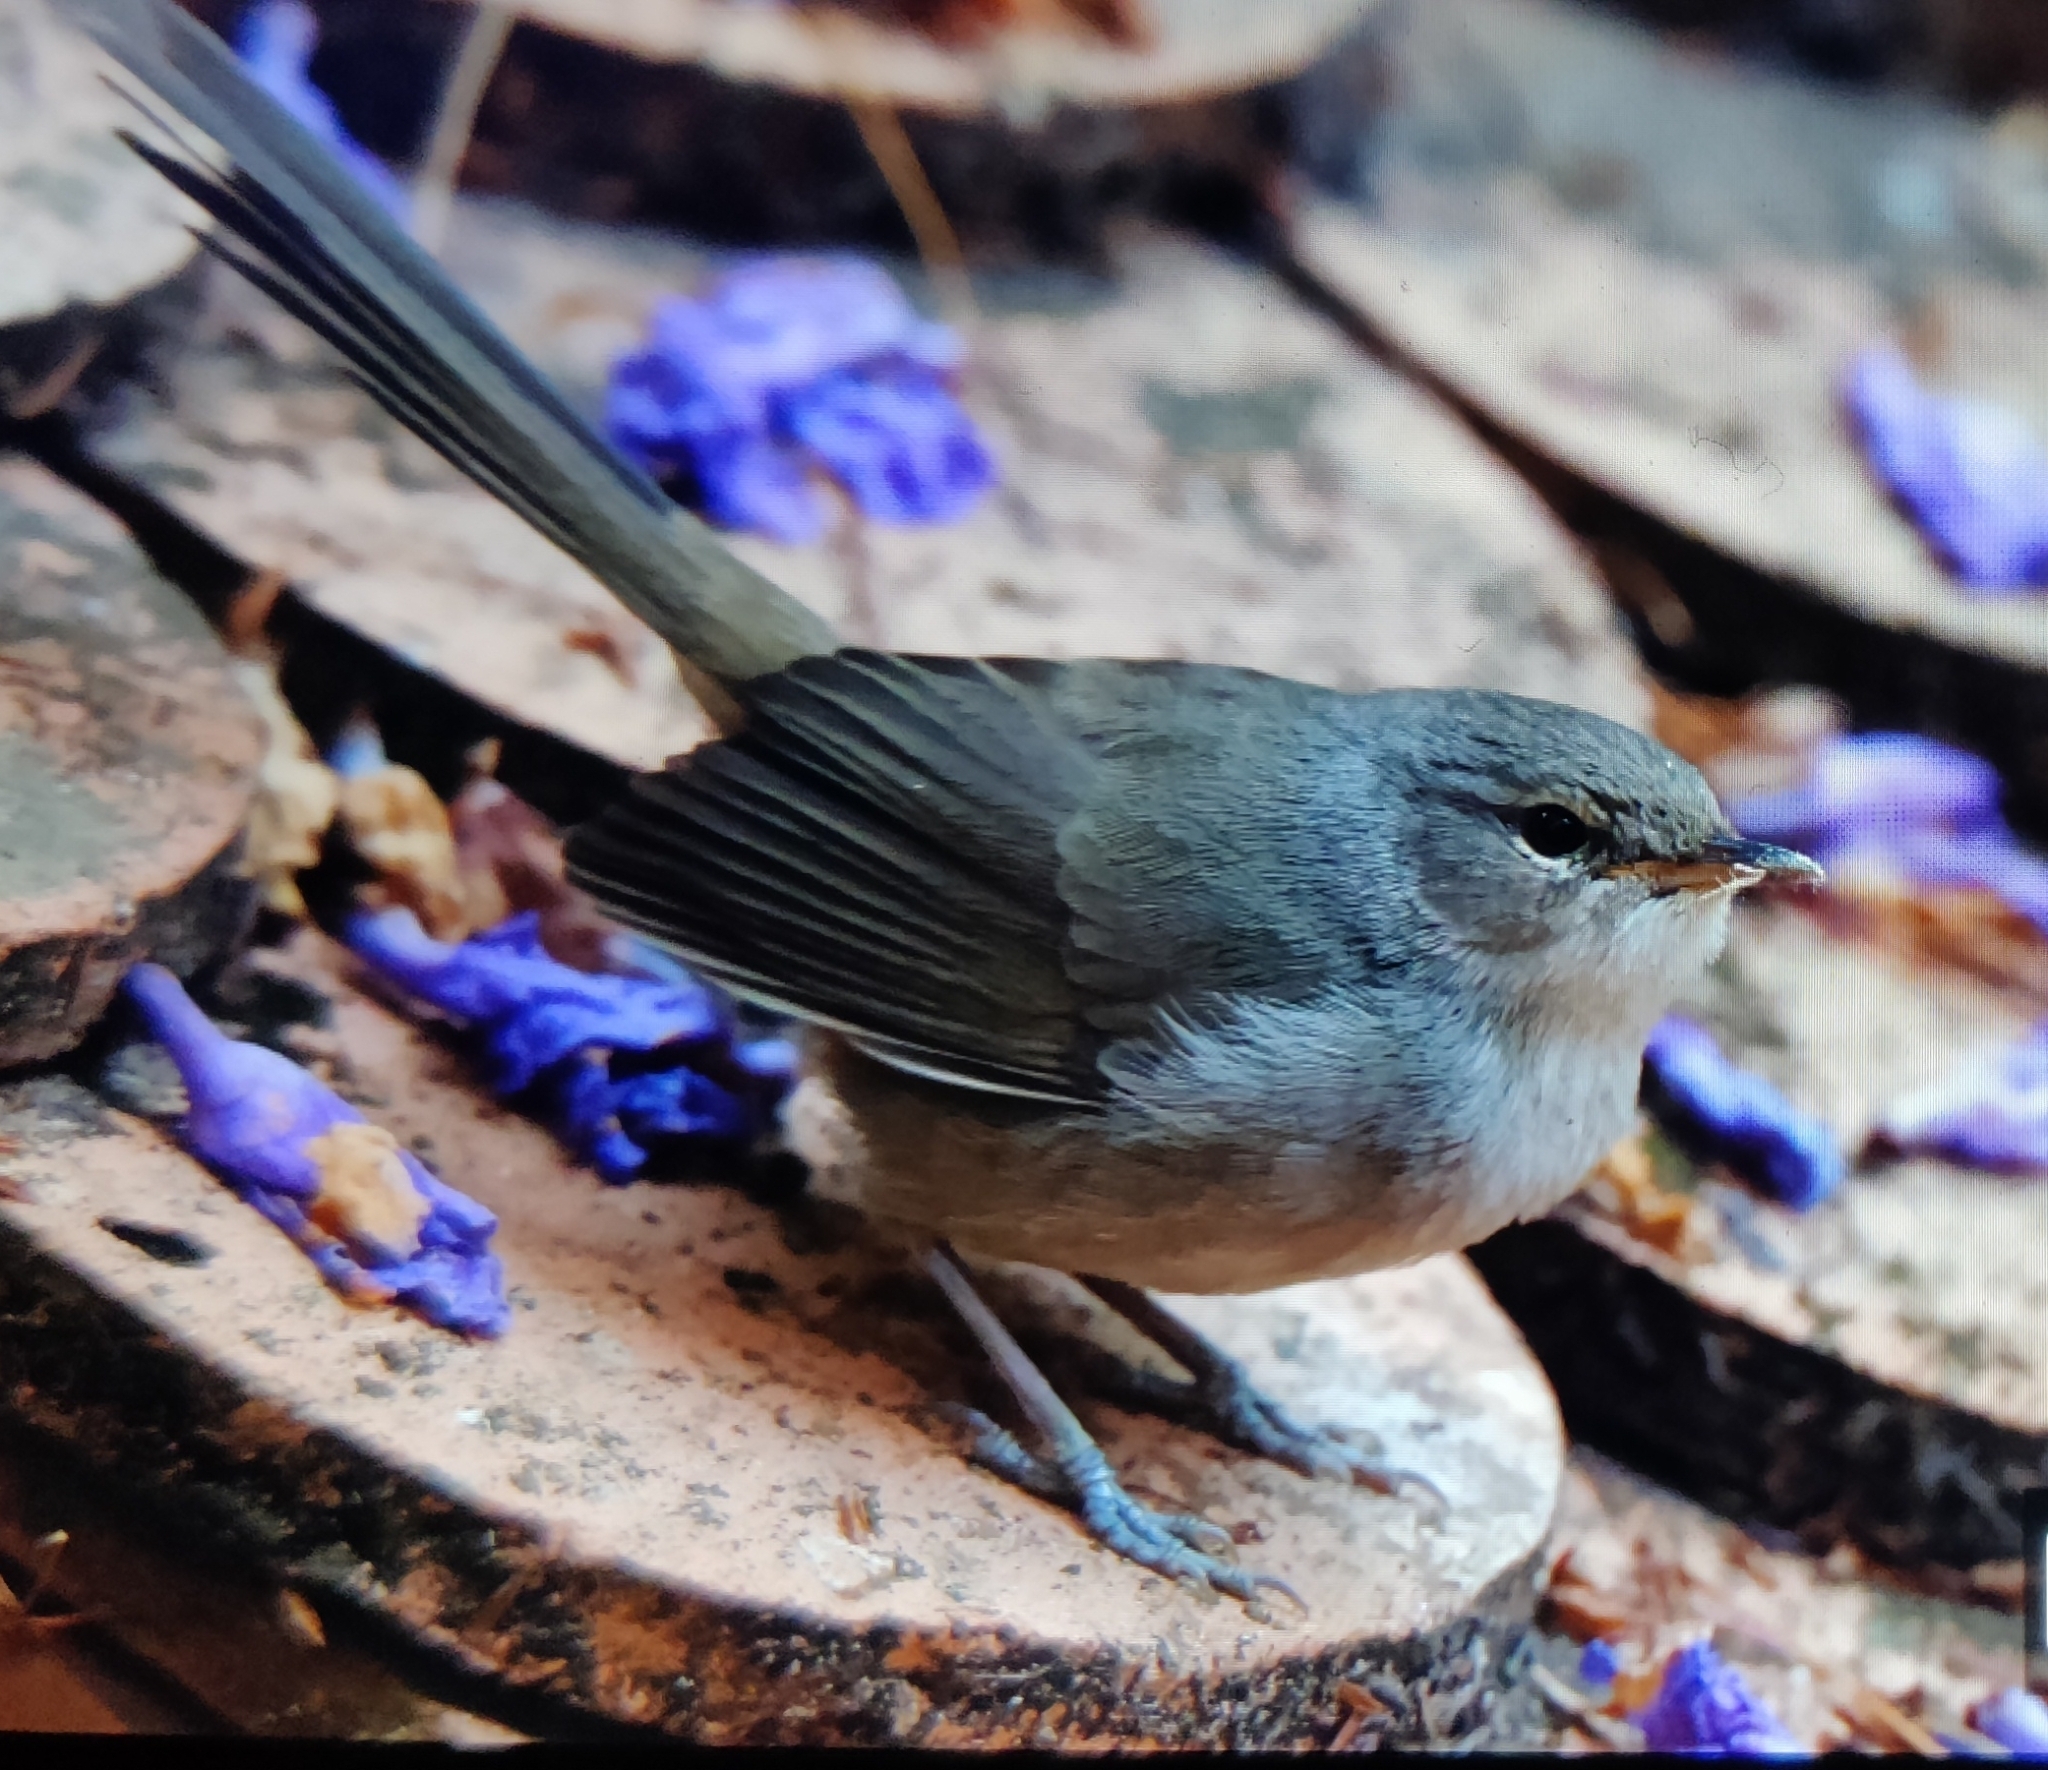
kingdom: Animalia
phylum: Chordata
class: Aves
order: Passeriformes
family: Acrocephalidae
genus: Nesillas
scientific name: Nesillas typica
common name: Malagasy brush warbler
